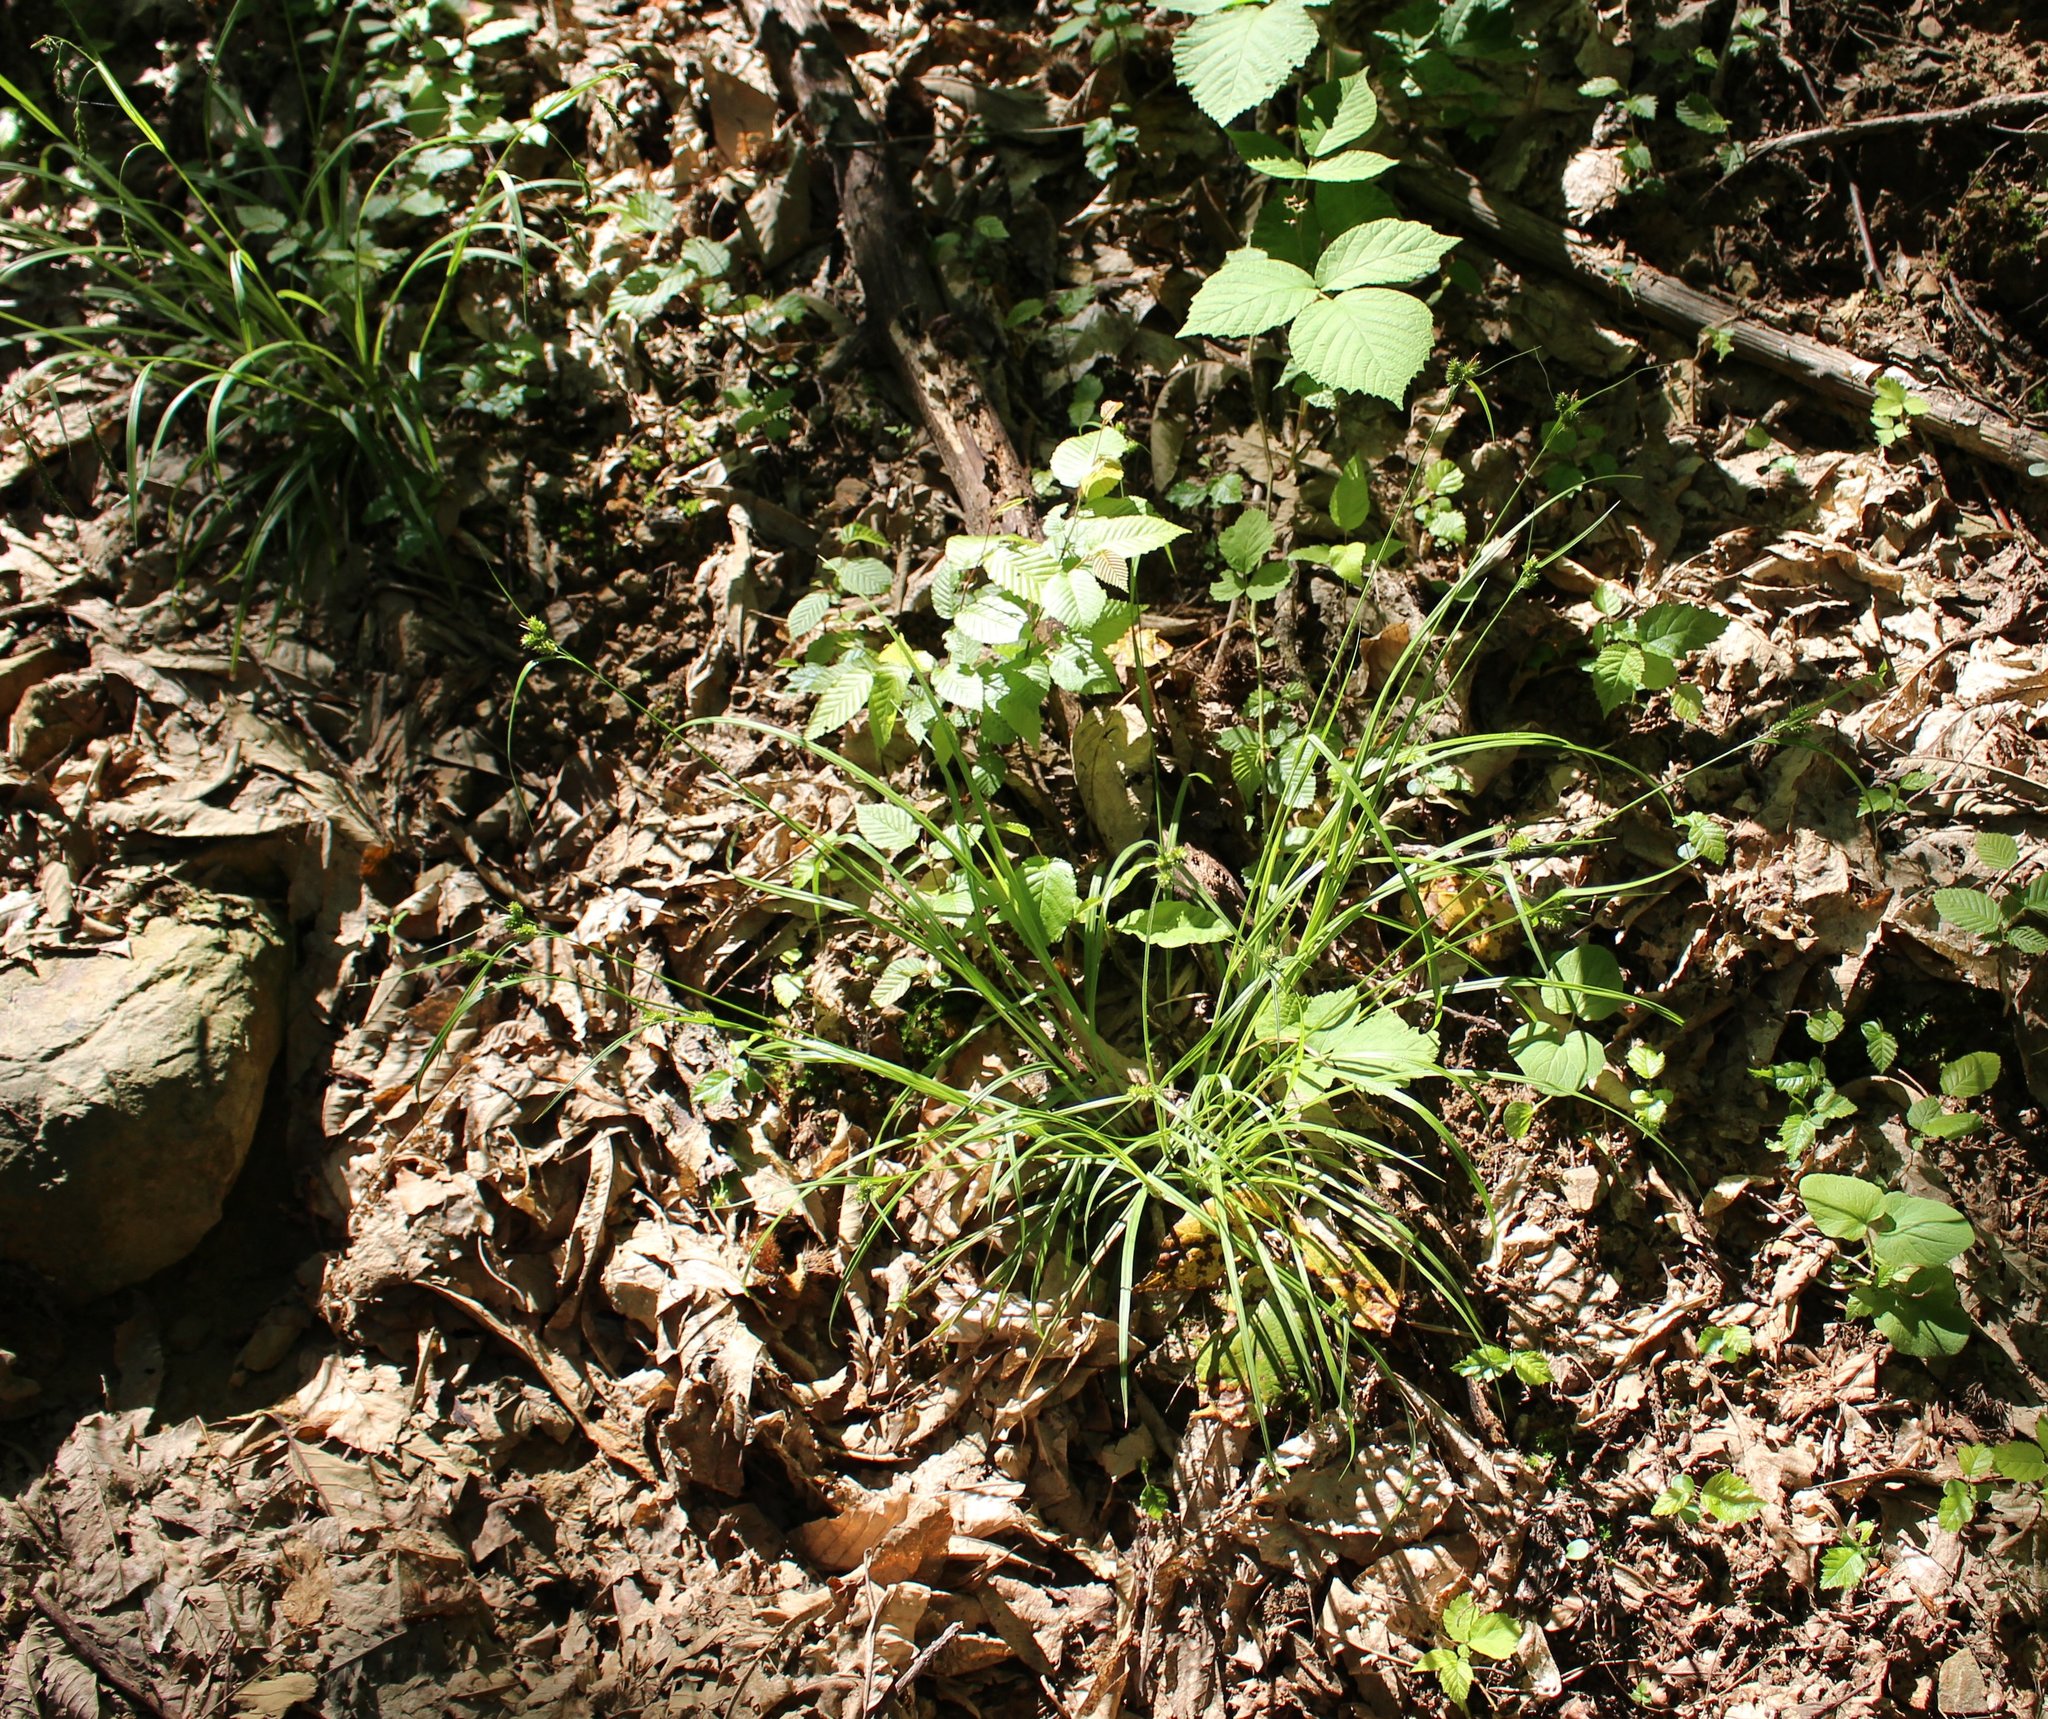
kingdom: Plantae
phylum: Tracheophyta
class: Liliopsida
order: Poales
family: Cyperaceae
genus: Carex
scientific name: Carex pallescens
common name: Pale sedge
